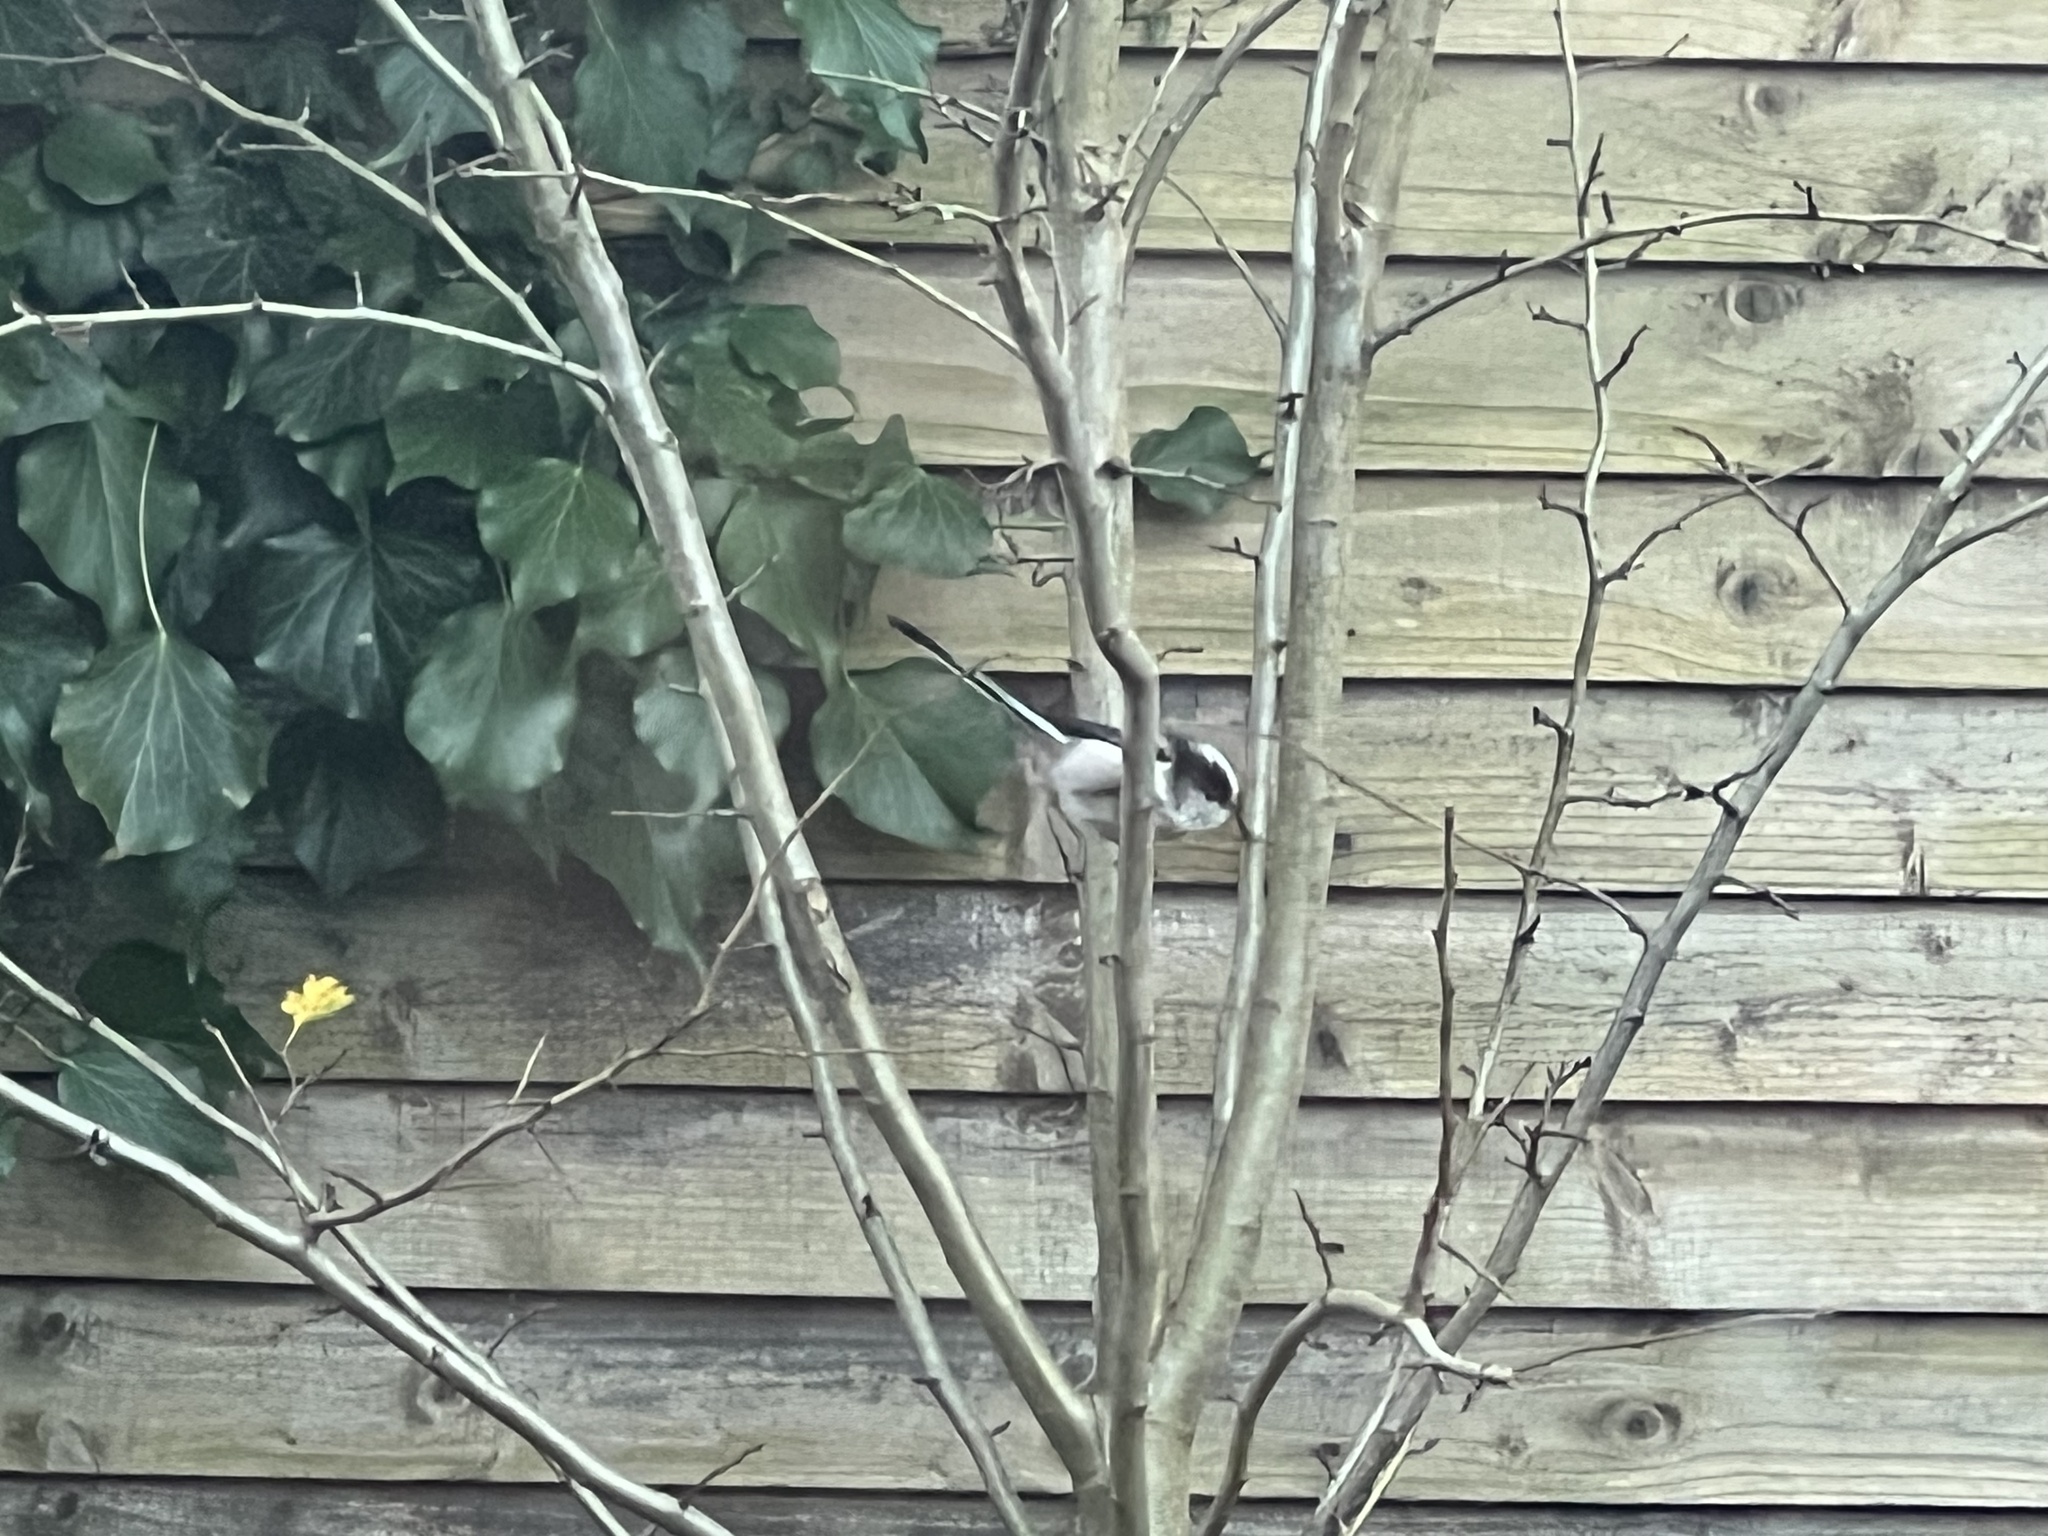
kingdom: Animalia
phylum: Chordata
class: Aves
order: Passeriformes
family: Aegithalidae
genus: Aegithalos
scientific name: Aegithalos caudatus
